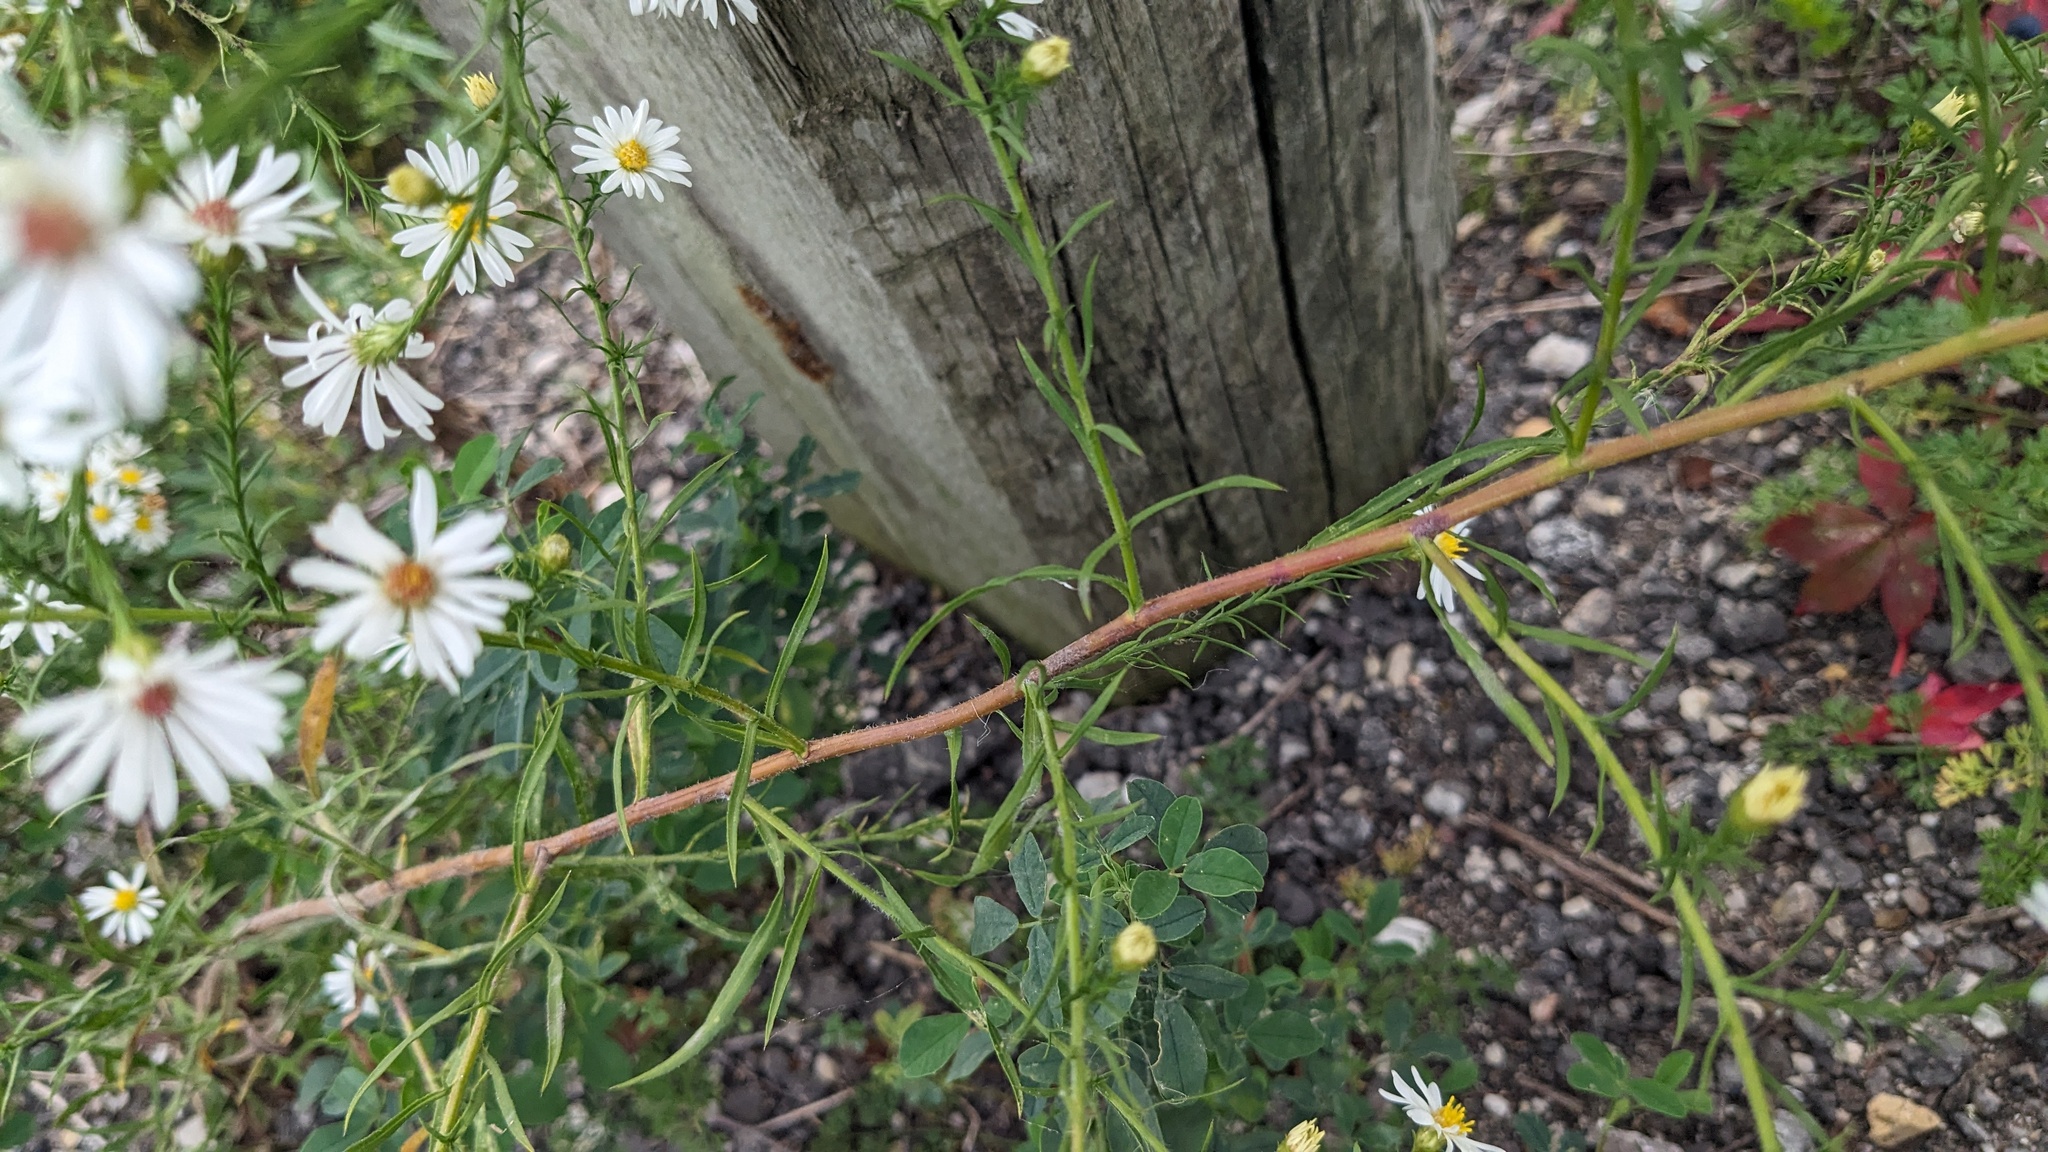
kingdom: Plantae
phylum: Tracheophyta
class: Magnoliopsida
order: Asterales
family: Asteraceae
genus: Symphyotrichum
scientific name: Symphyotrichum pilosum
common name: Awl aster
